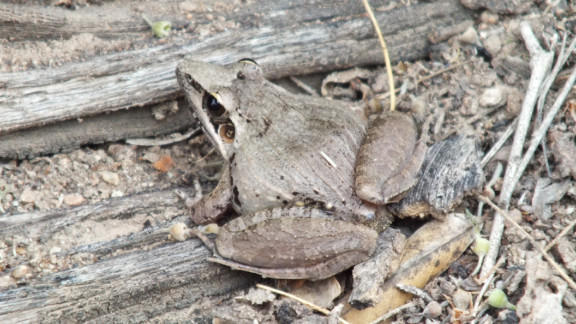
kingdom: Animalia
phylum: Chordata
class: Amphibia
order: Anura
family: Ptychadenidae
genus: Ptychadena
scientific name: Ptychadena anchietae
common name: Anchieta's ridged frog
